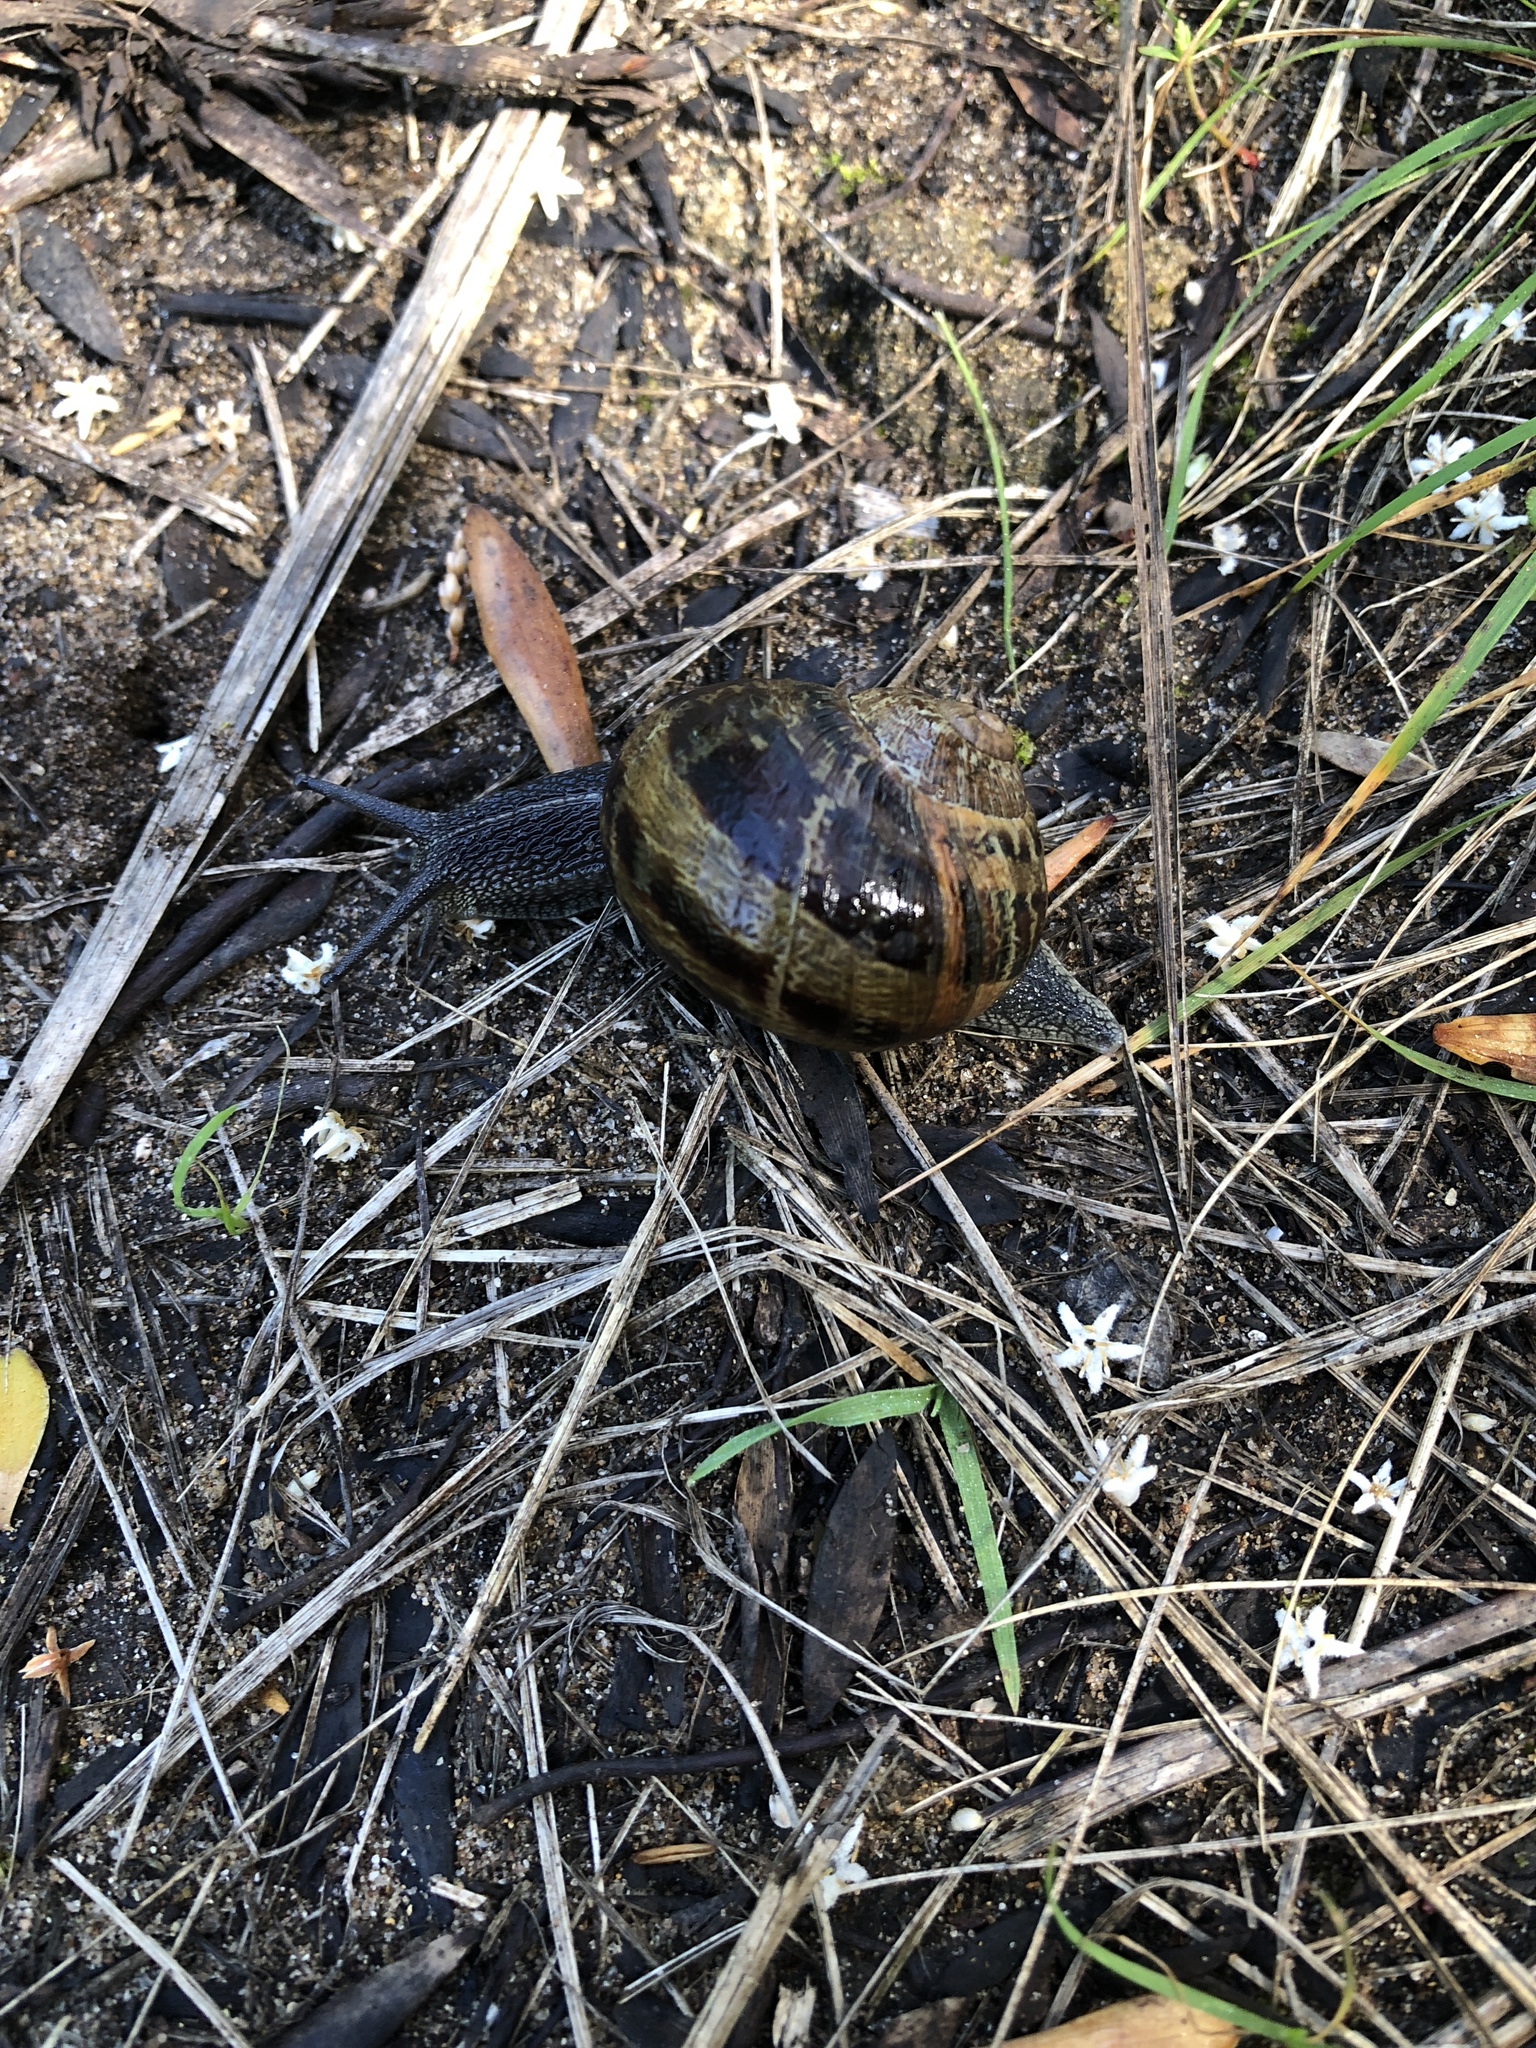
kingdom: Animalia
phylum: Mollusca
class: Gastropoda
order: Stylommatophora
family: Helicidae
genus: Cornu
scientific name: Cornu aspersum
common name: Brown garden snail
